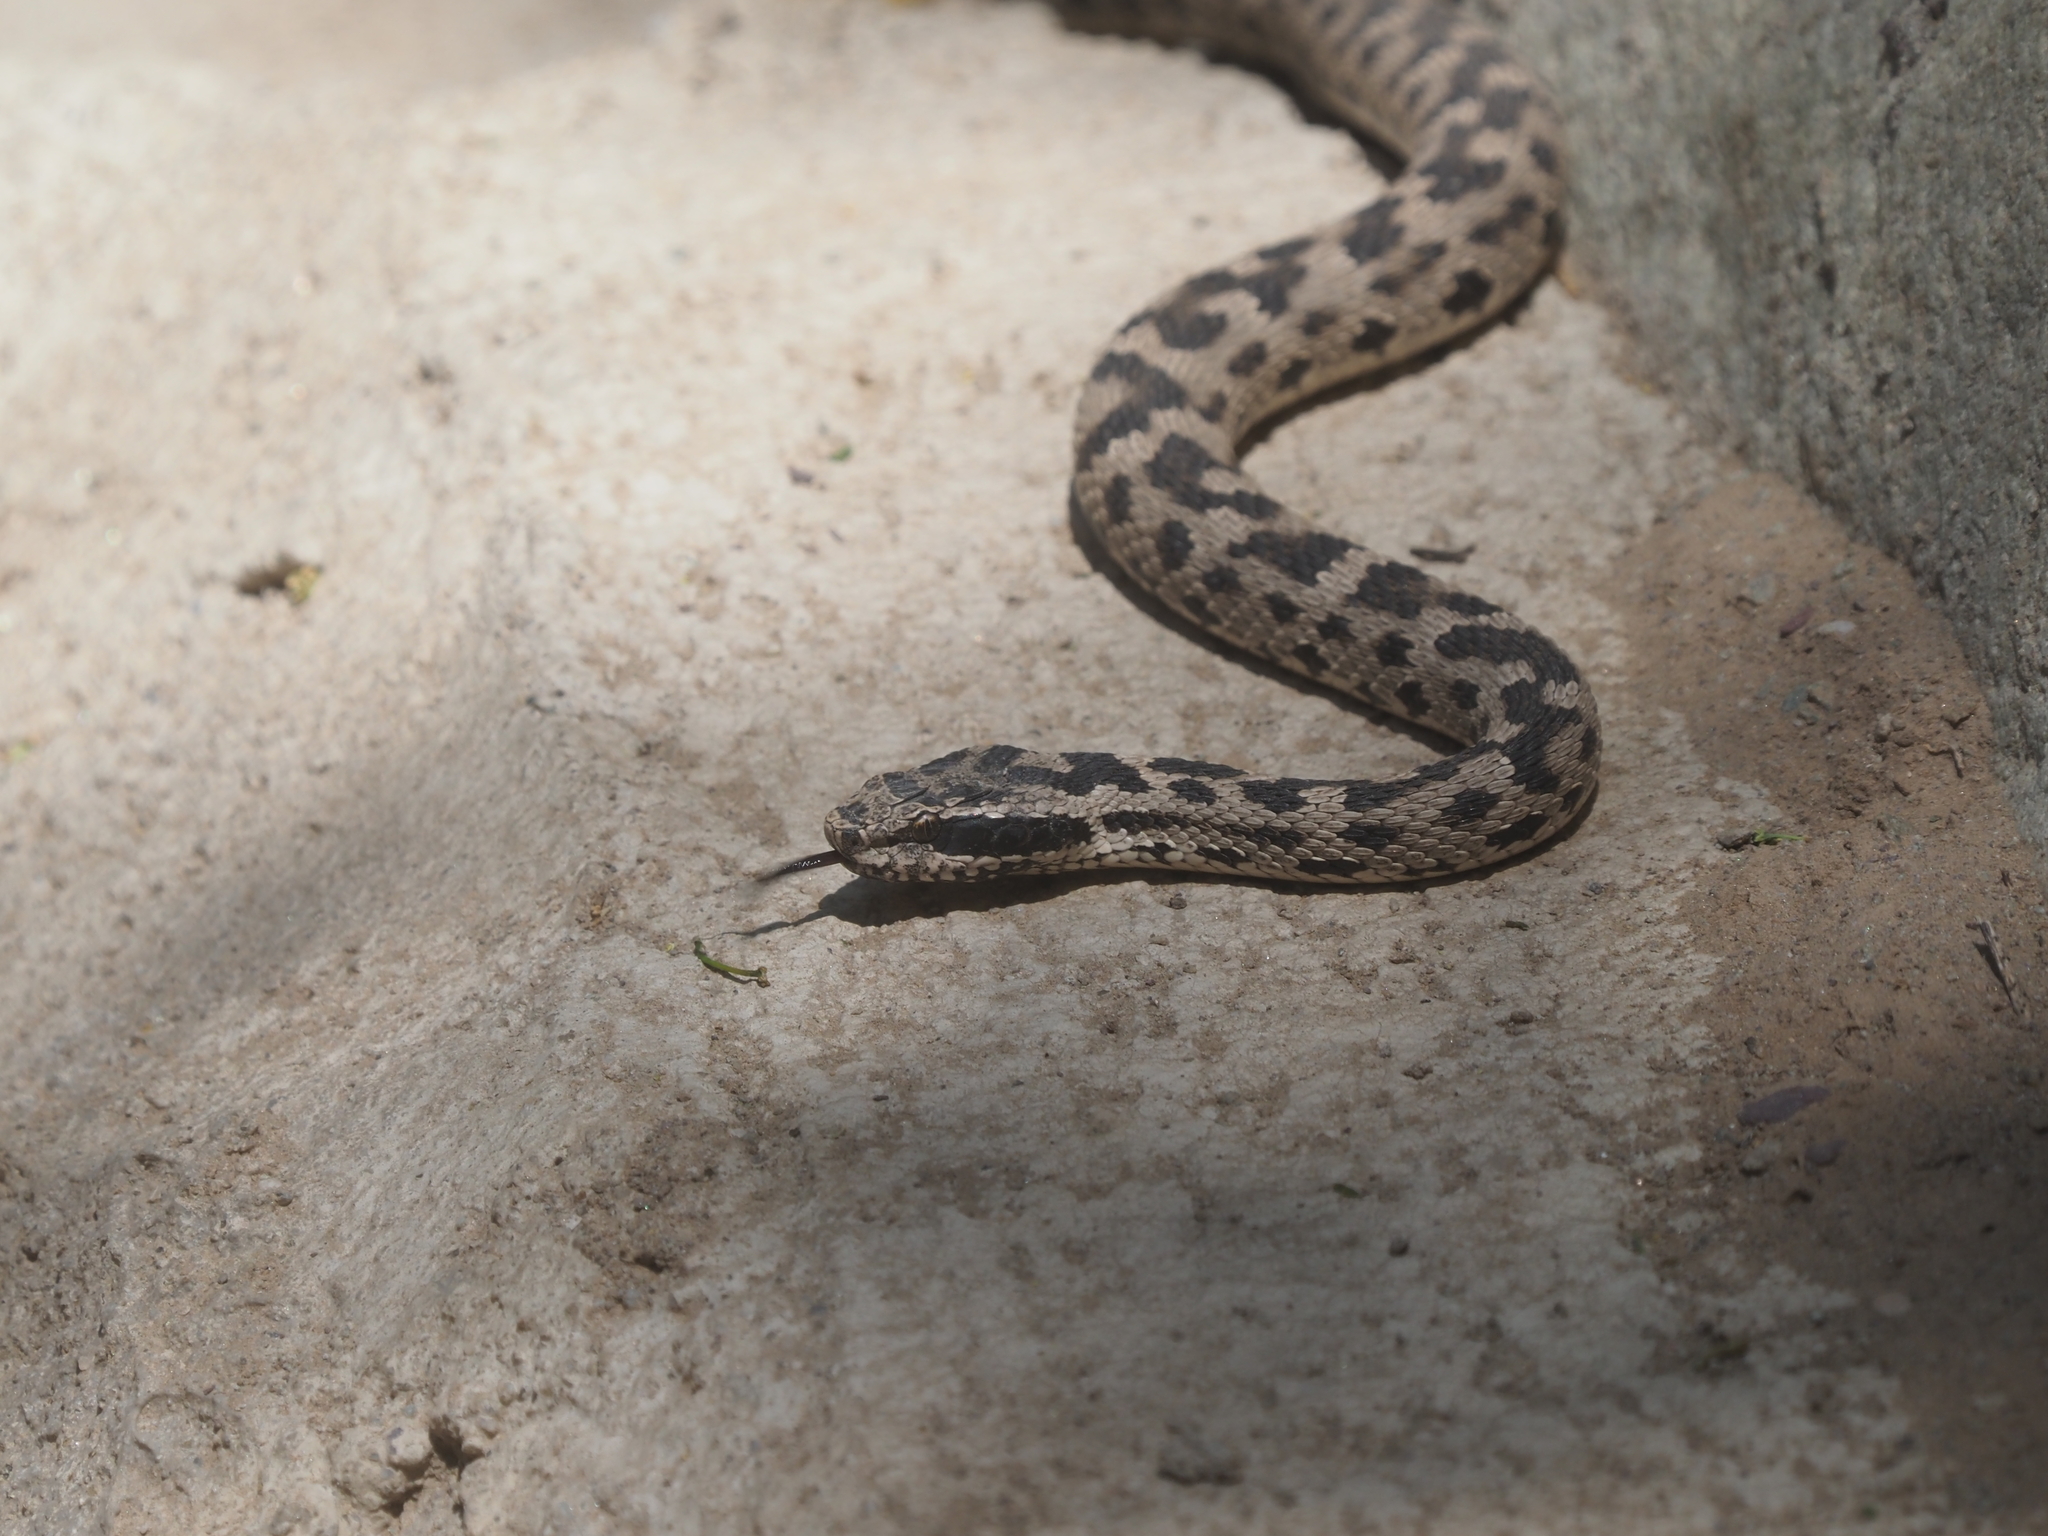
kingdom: Animalia
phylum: Chordata
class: Squamata
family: Viperidae
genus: Gloydius
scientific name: Gloydius halys
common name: Halys pit viper
